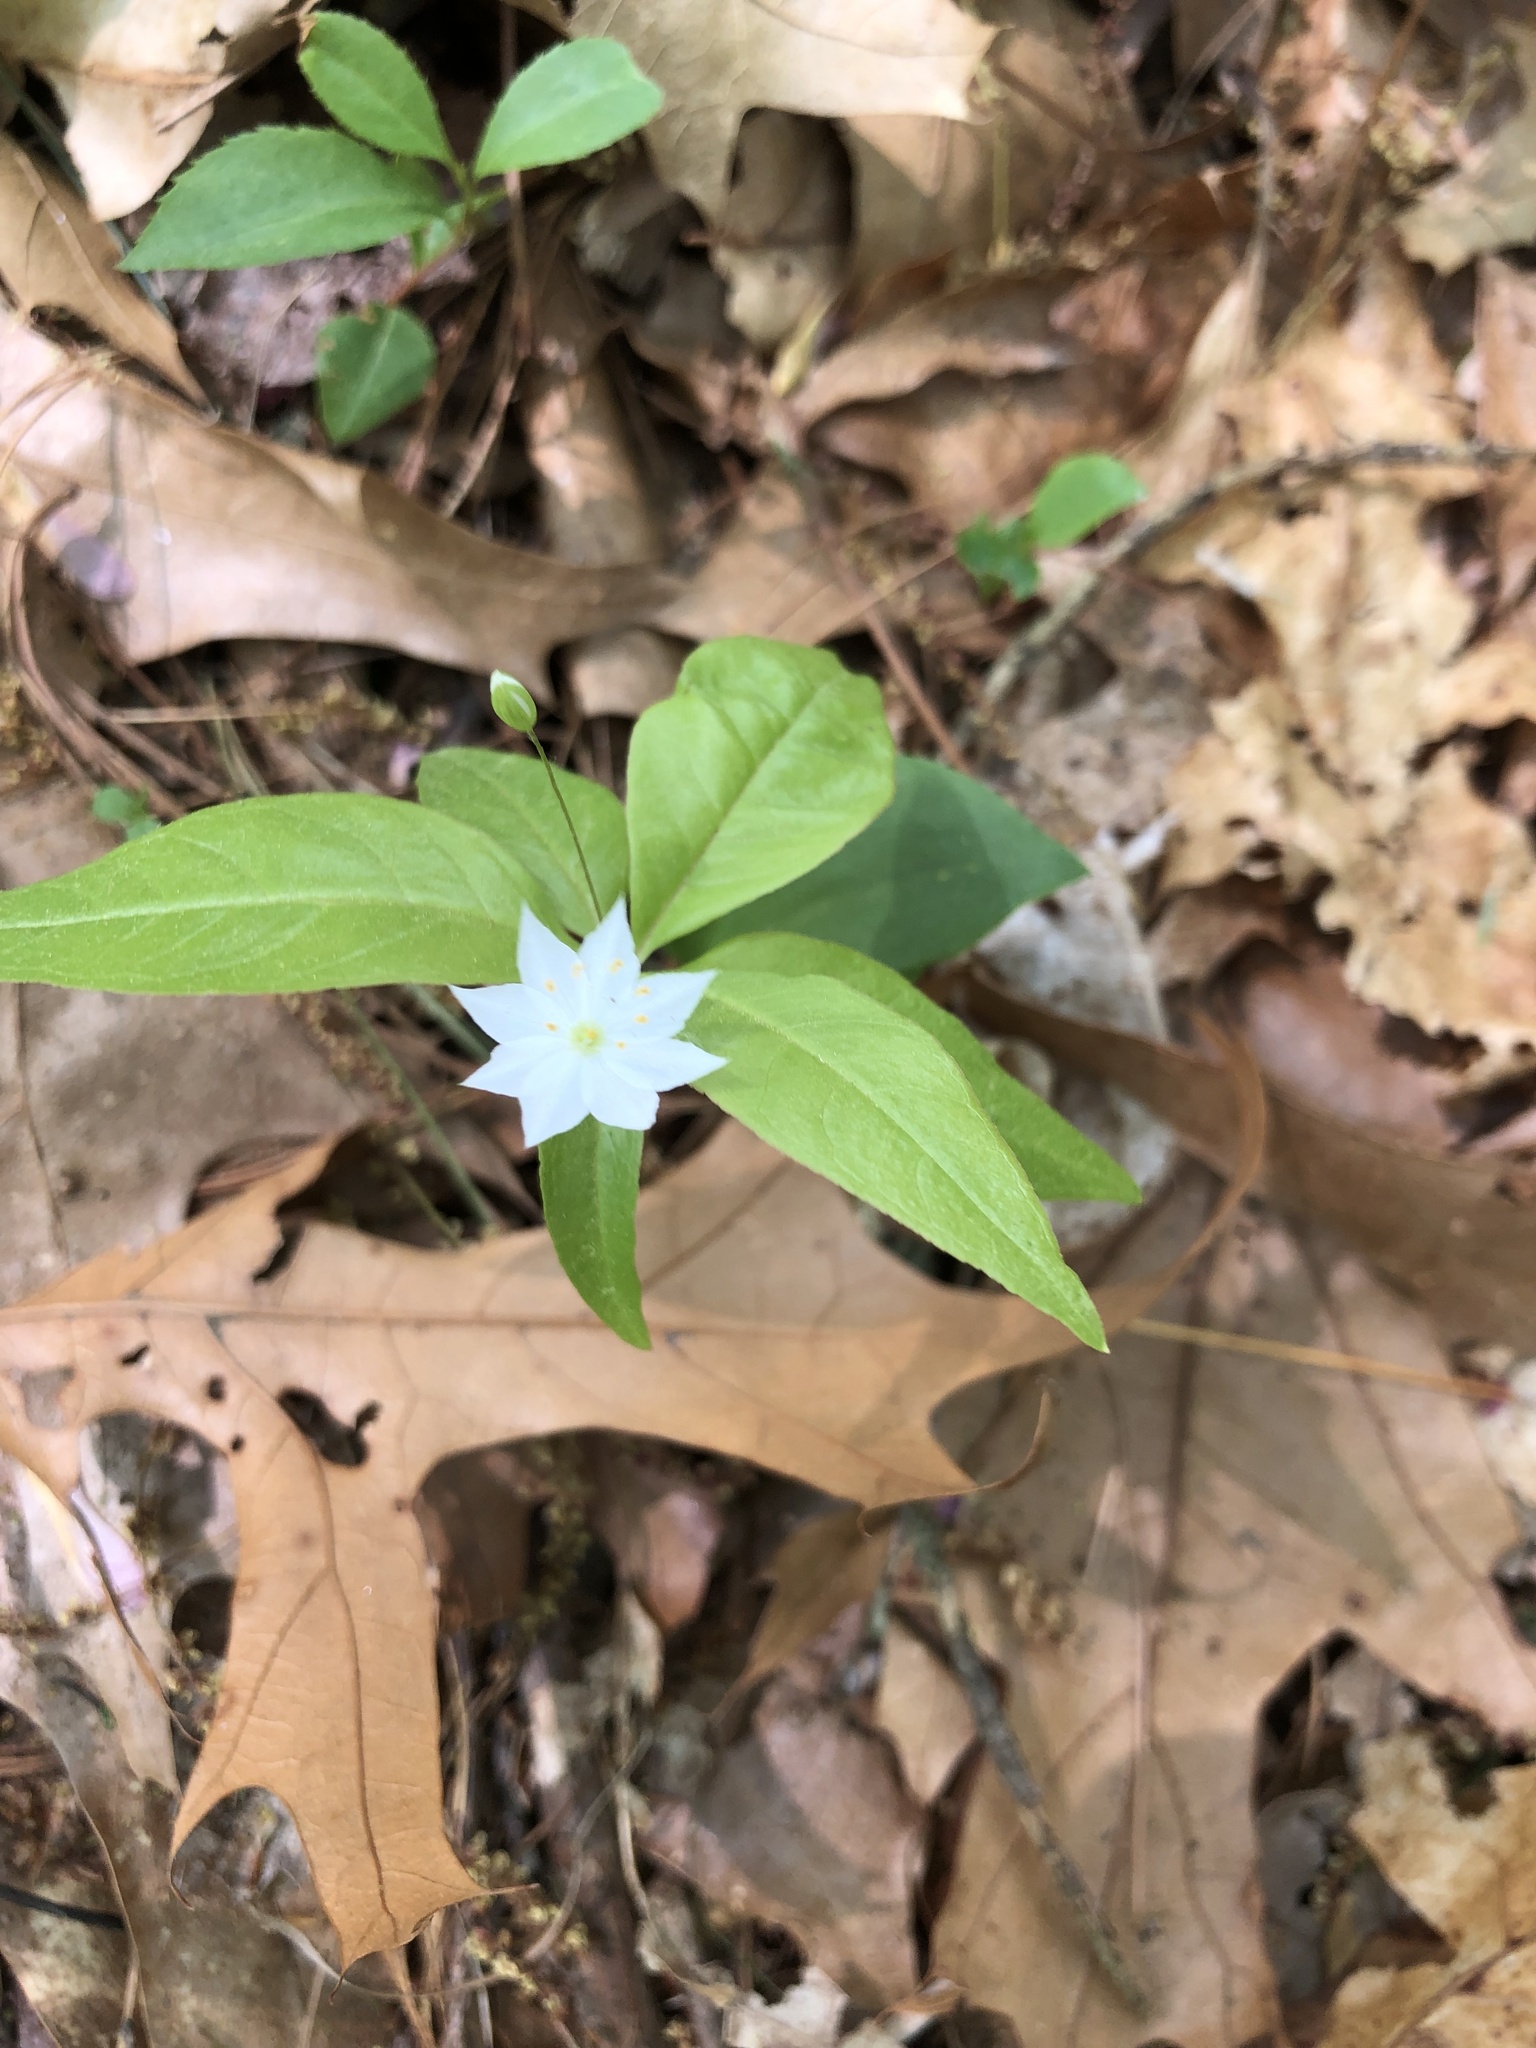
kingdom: Plantae
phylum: Tracheophyta
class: Magnoliopsida
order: Ericales
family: Primulaceae
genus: Lysimachia
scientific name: Lysimachia borealis
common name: American starflower
